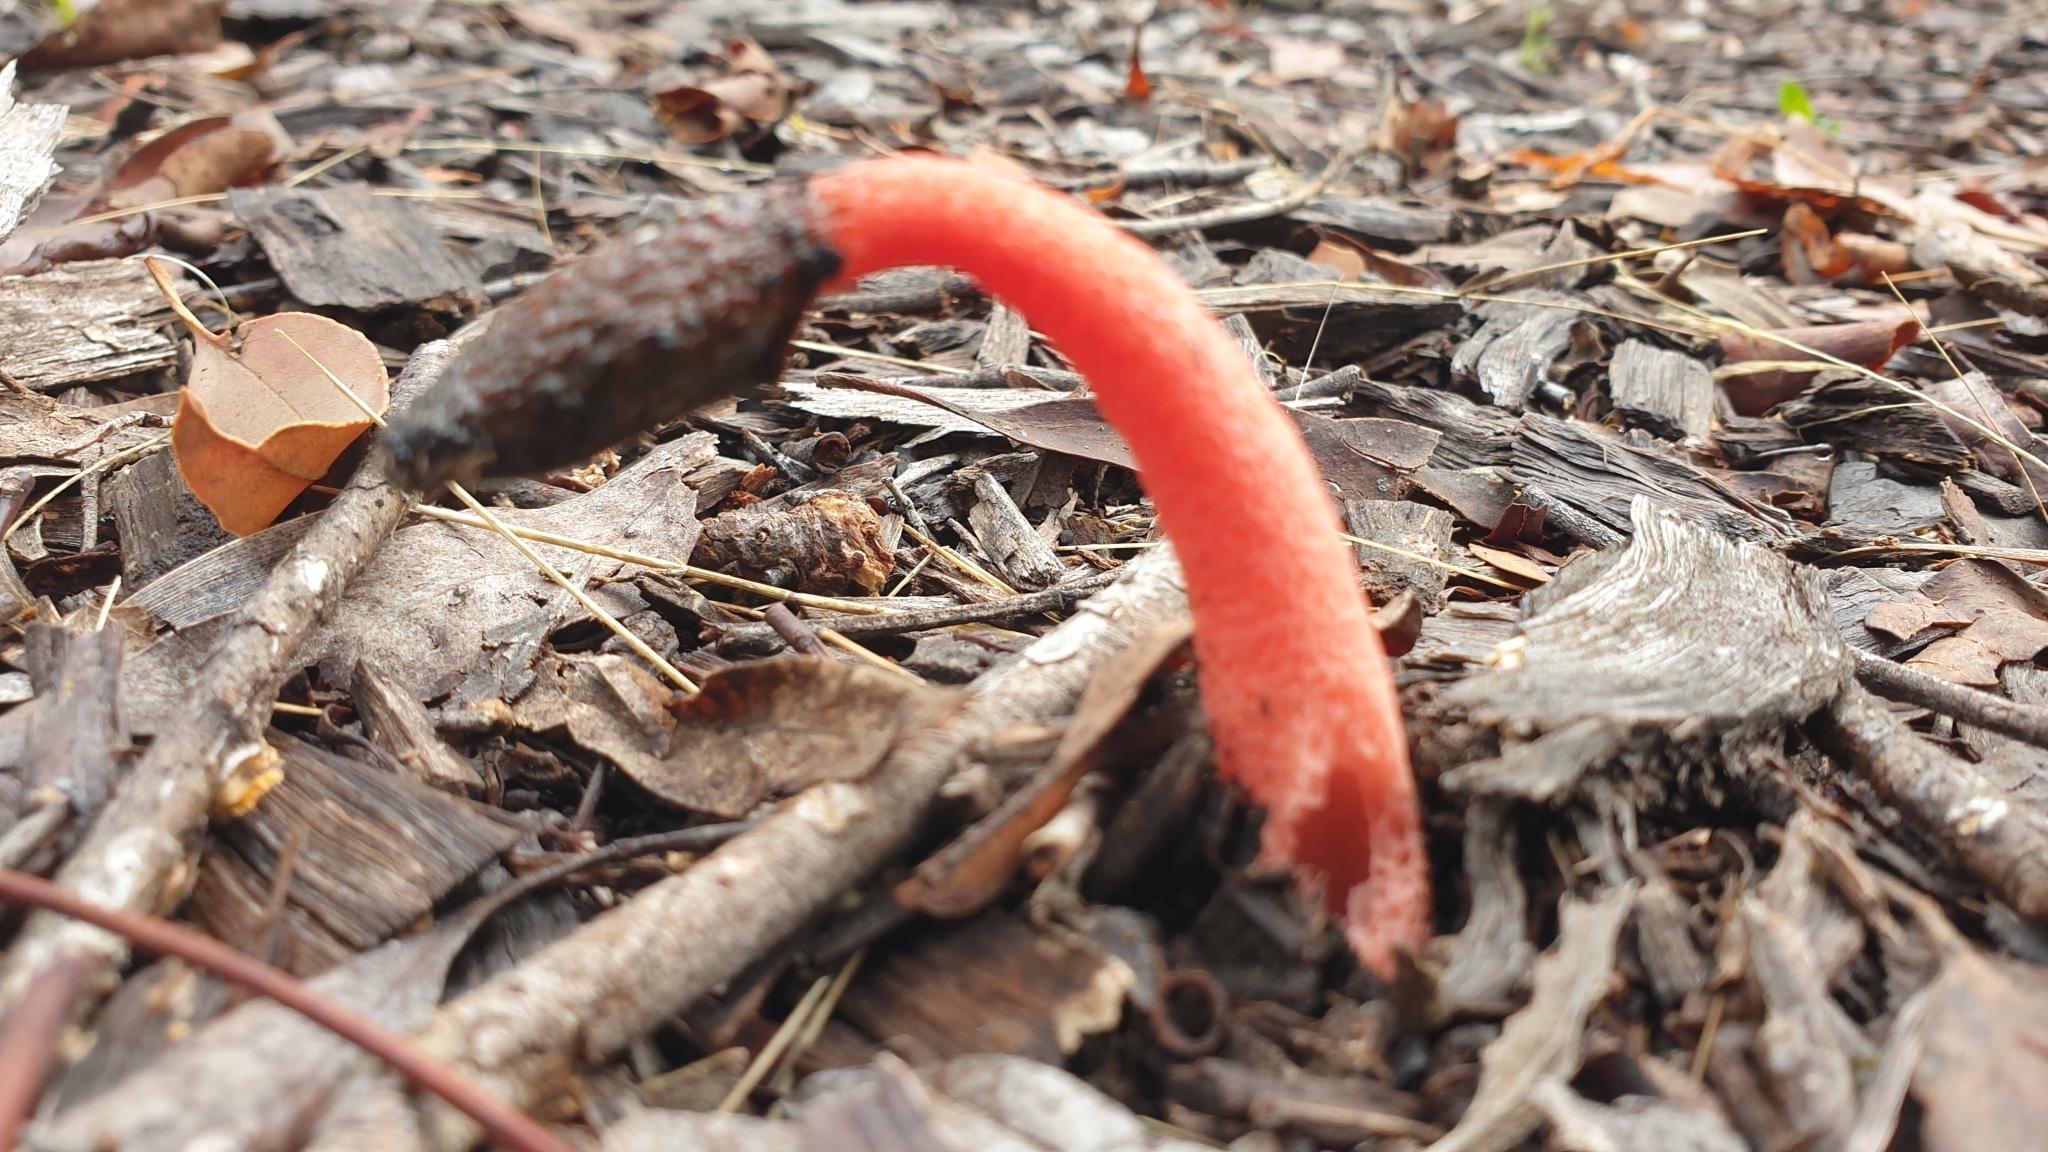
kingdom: Fungi
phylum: Basidiomycota
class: Agaricomycetes
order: Phallales
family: Phallaceae
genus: Phallus
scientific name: Phallus rubicundus
